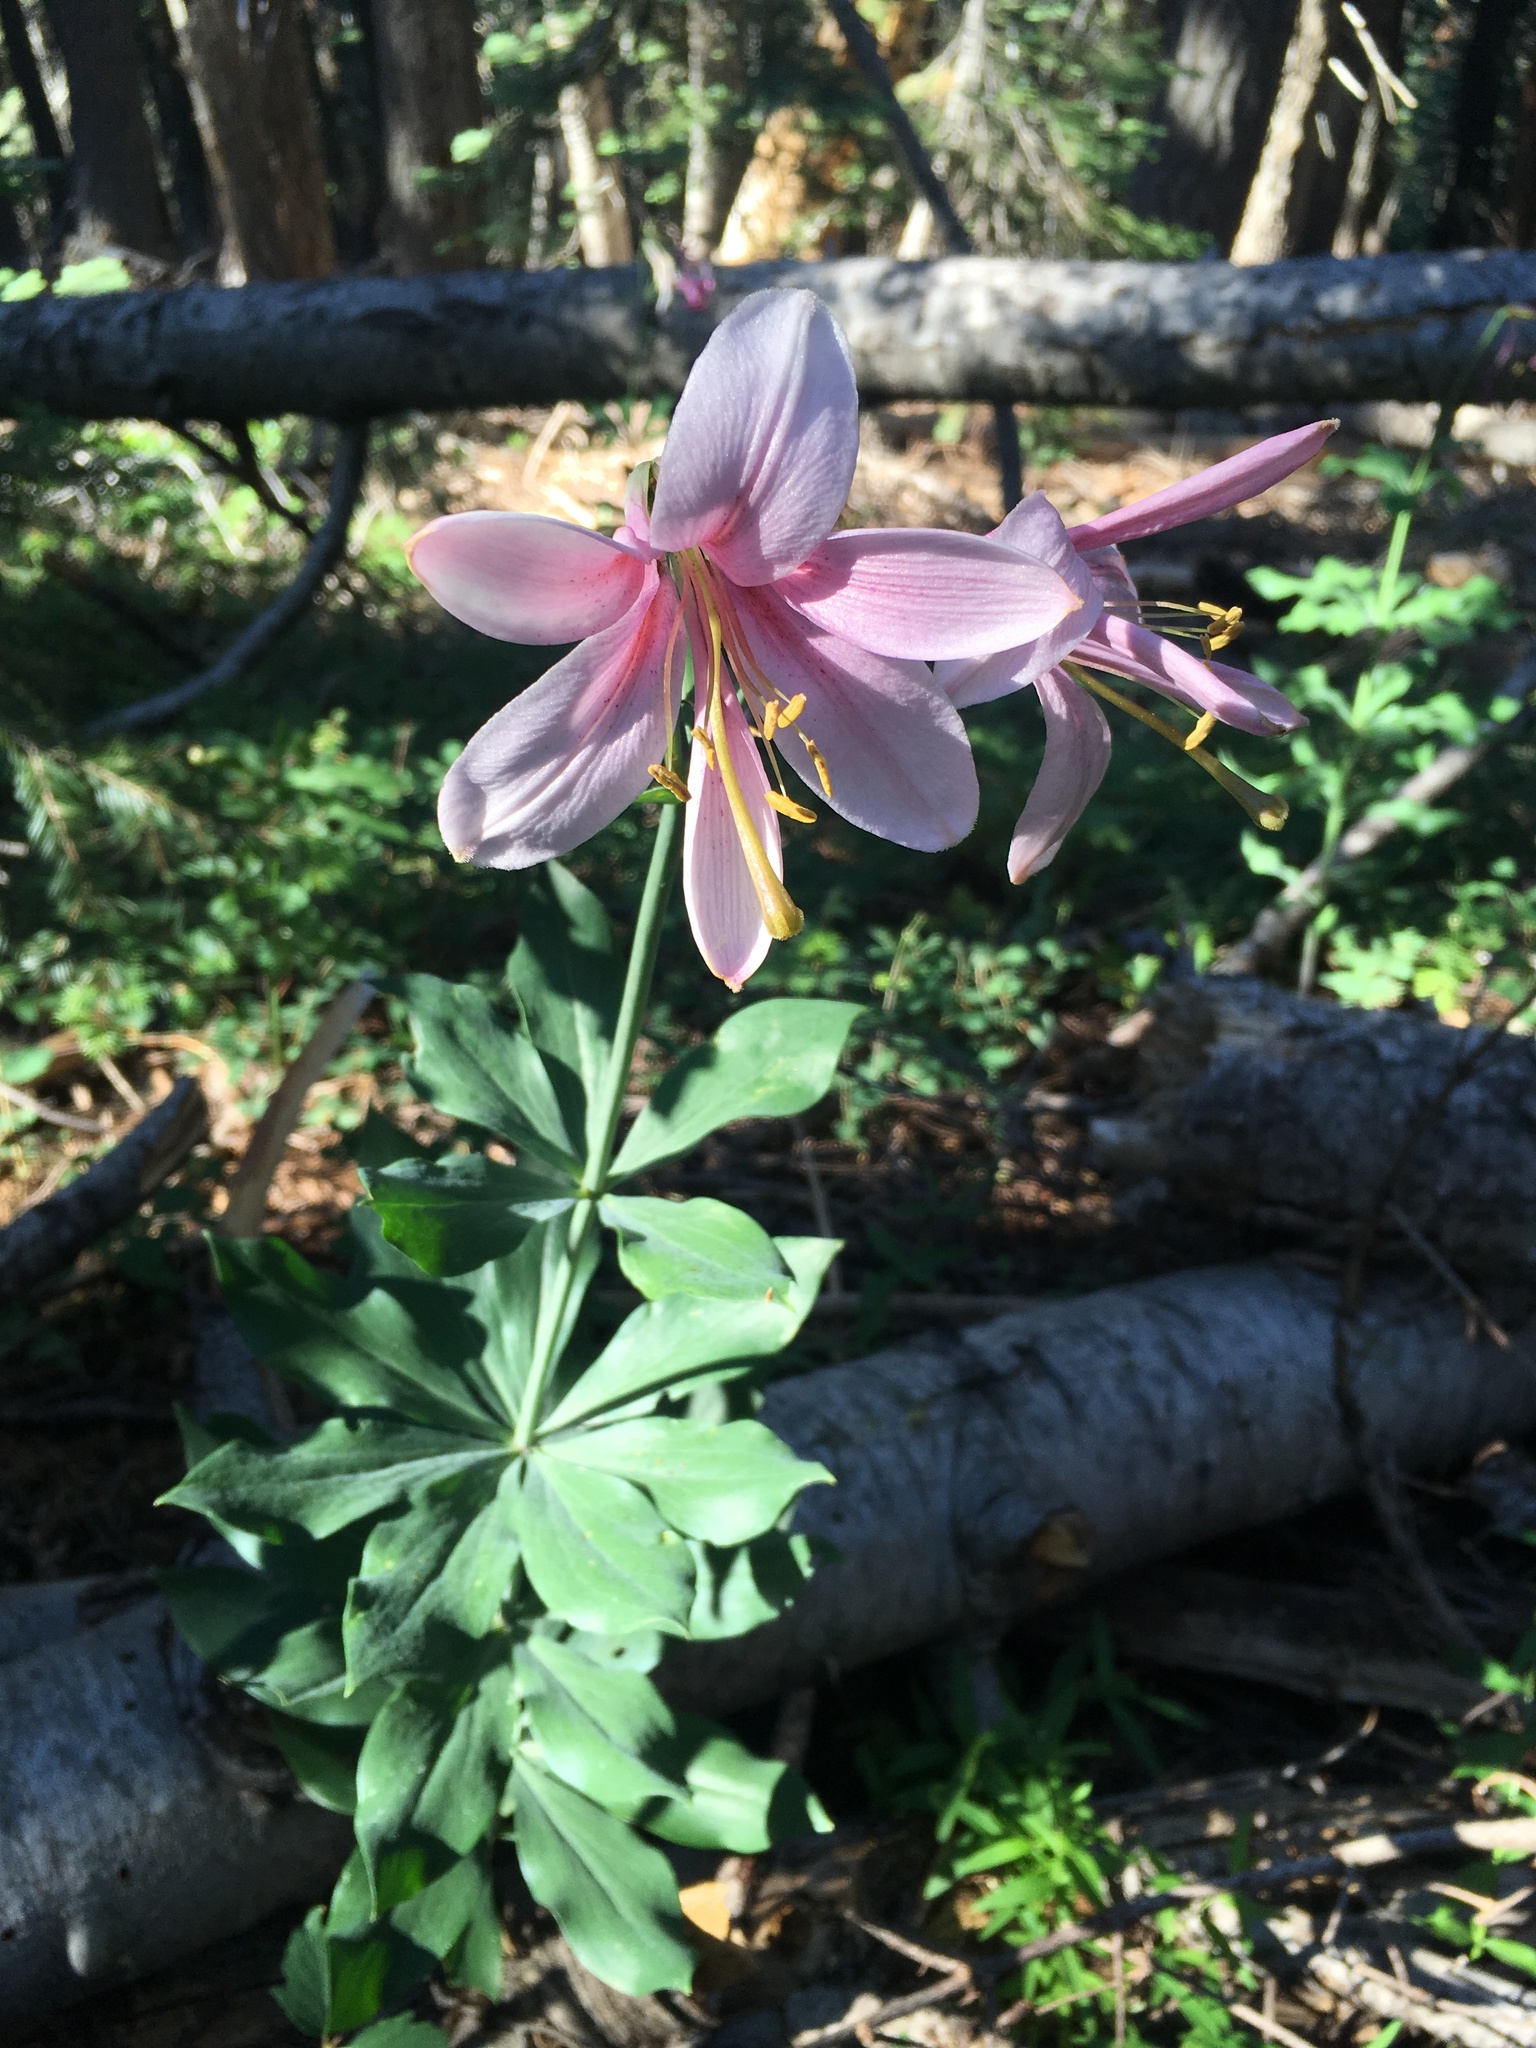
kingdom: Plantae
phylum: Tracheophyta
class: Liliopsida
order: Liliales
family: Liliaceae
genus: Lilium
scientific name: Lilium washingtonianum
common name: Washington lily
